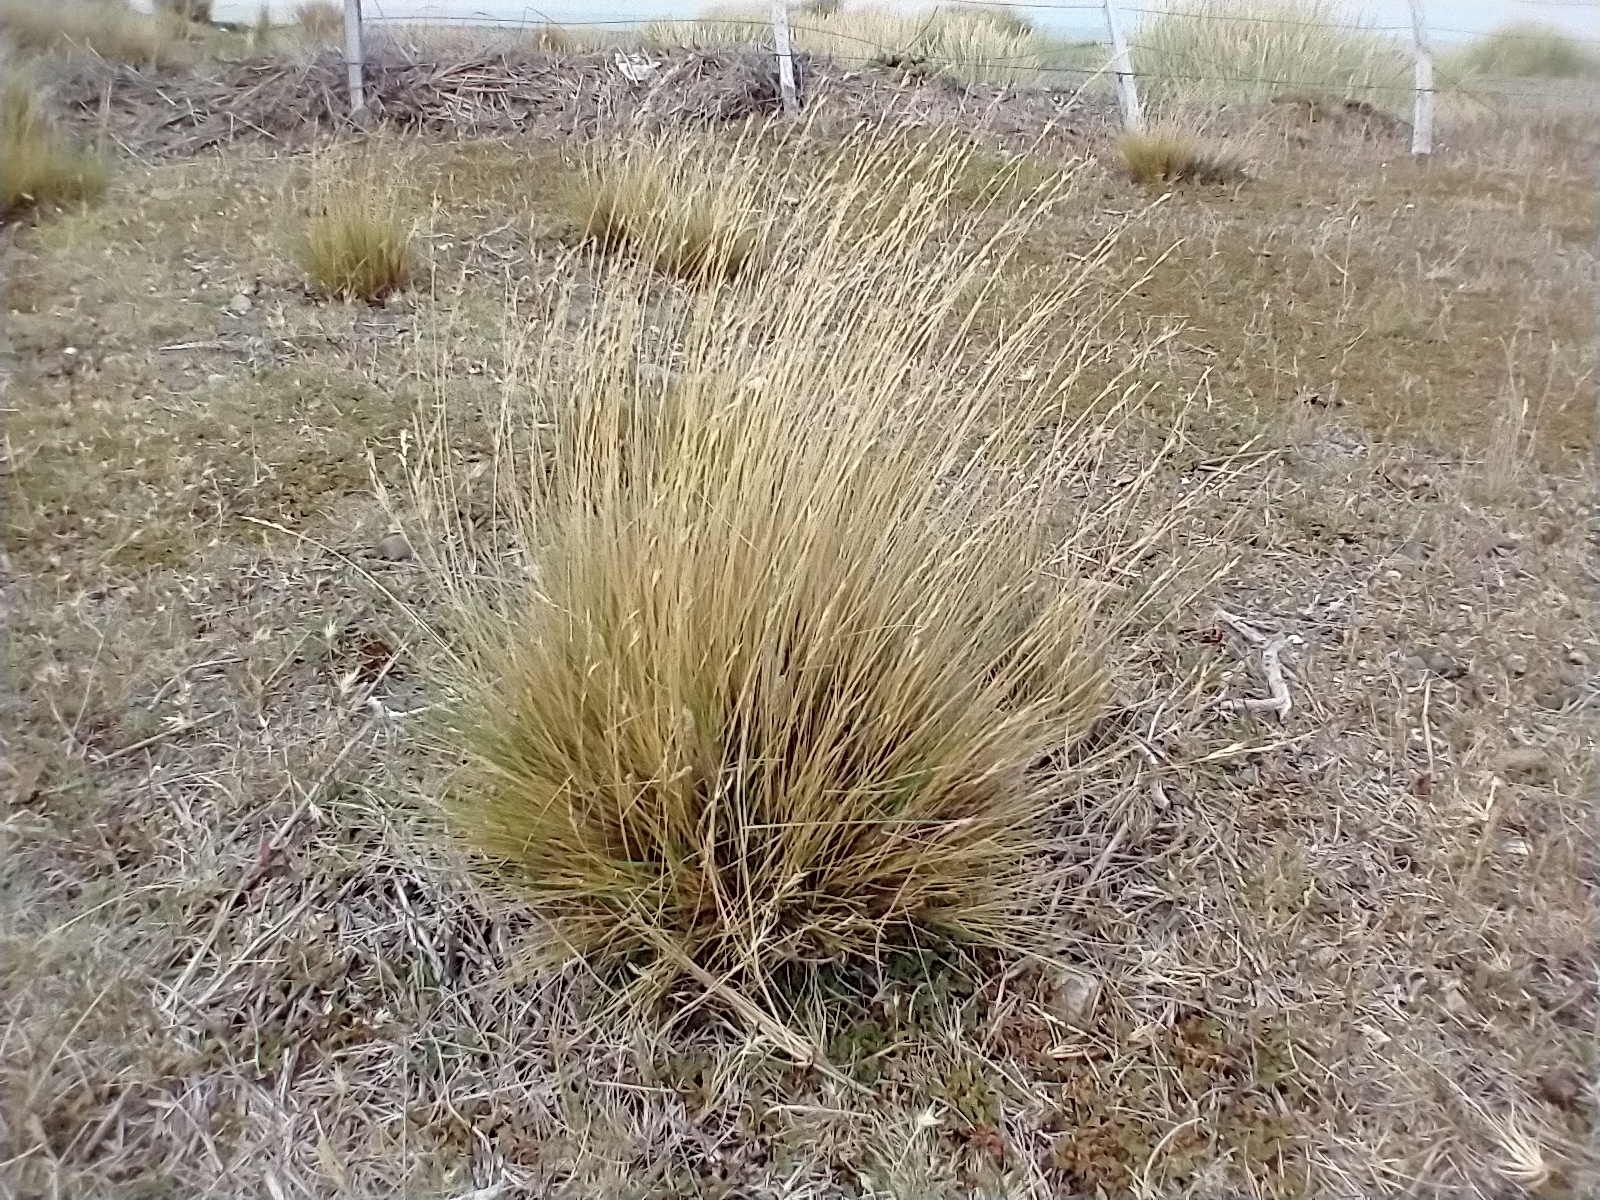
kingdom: Plantae
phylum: Tracheophyta
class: Liliopsida
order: Poales
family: Poaceae
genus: Festuca
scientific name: Festuca gracillima
